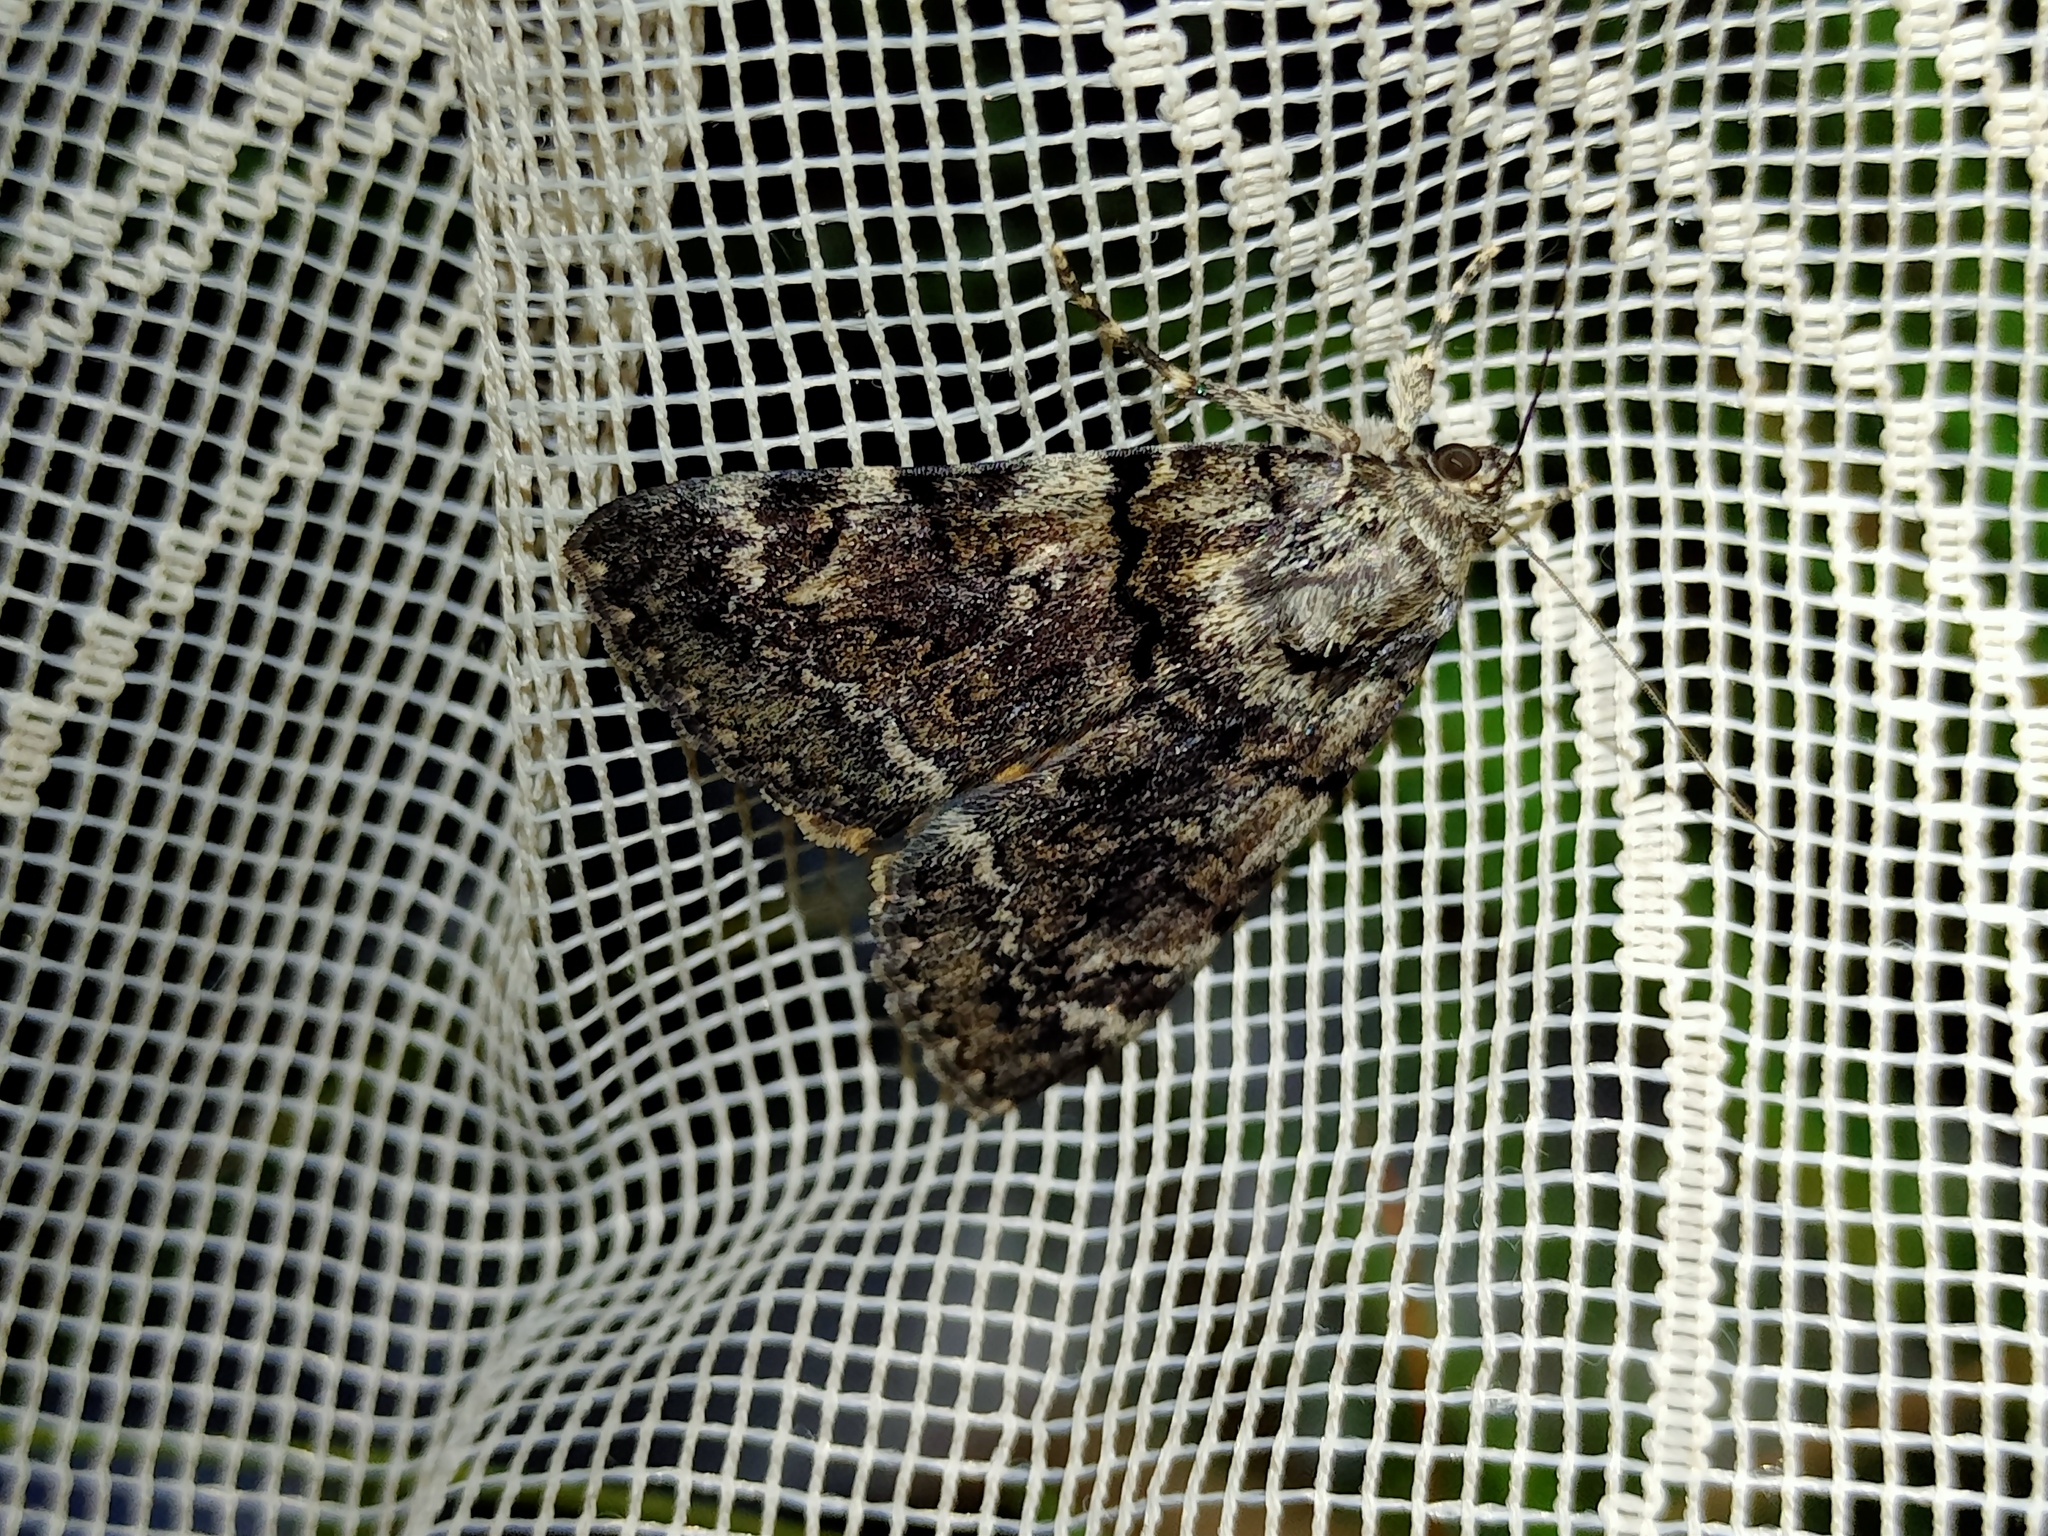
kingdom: Animalia
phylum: Arthropoda
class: Insecta
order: Lepidoptera
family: Erebidae
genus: Catocala
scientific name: Catocala nymphagoga
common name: Oak yellow underwing
